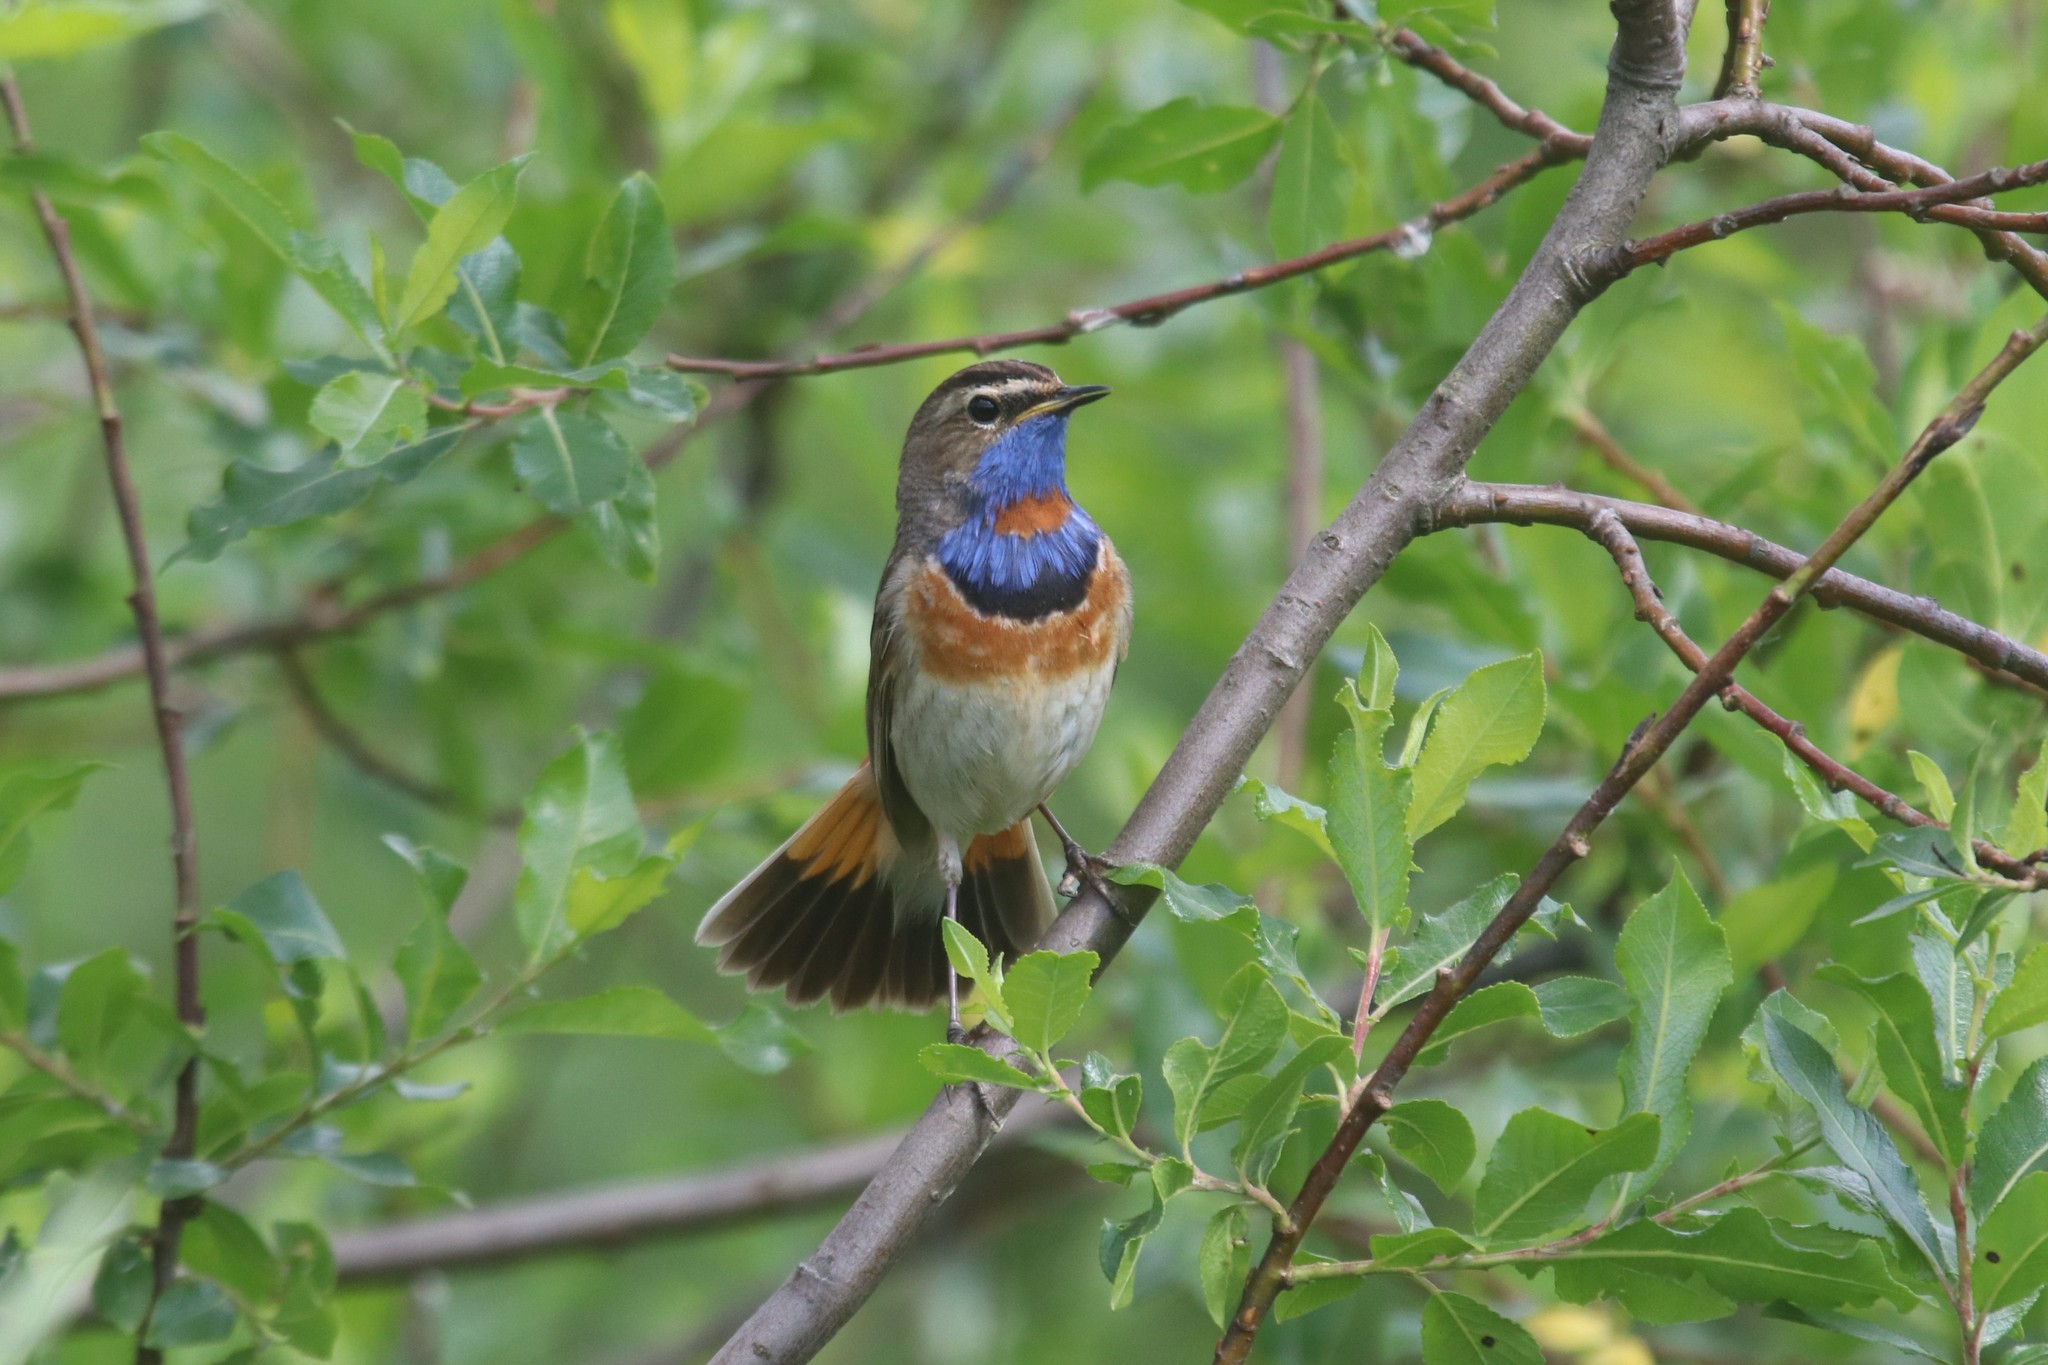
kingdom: Animalia
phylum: Chordata
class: Aves
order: Passeriformes
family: Muscicapidae
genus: Luscinia
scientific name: Luscinia svecica
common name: Bluethroat
